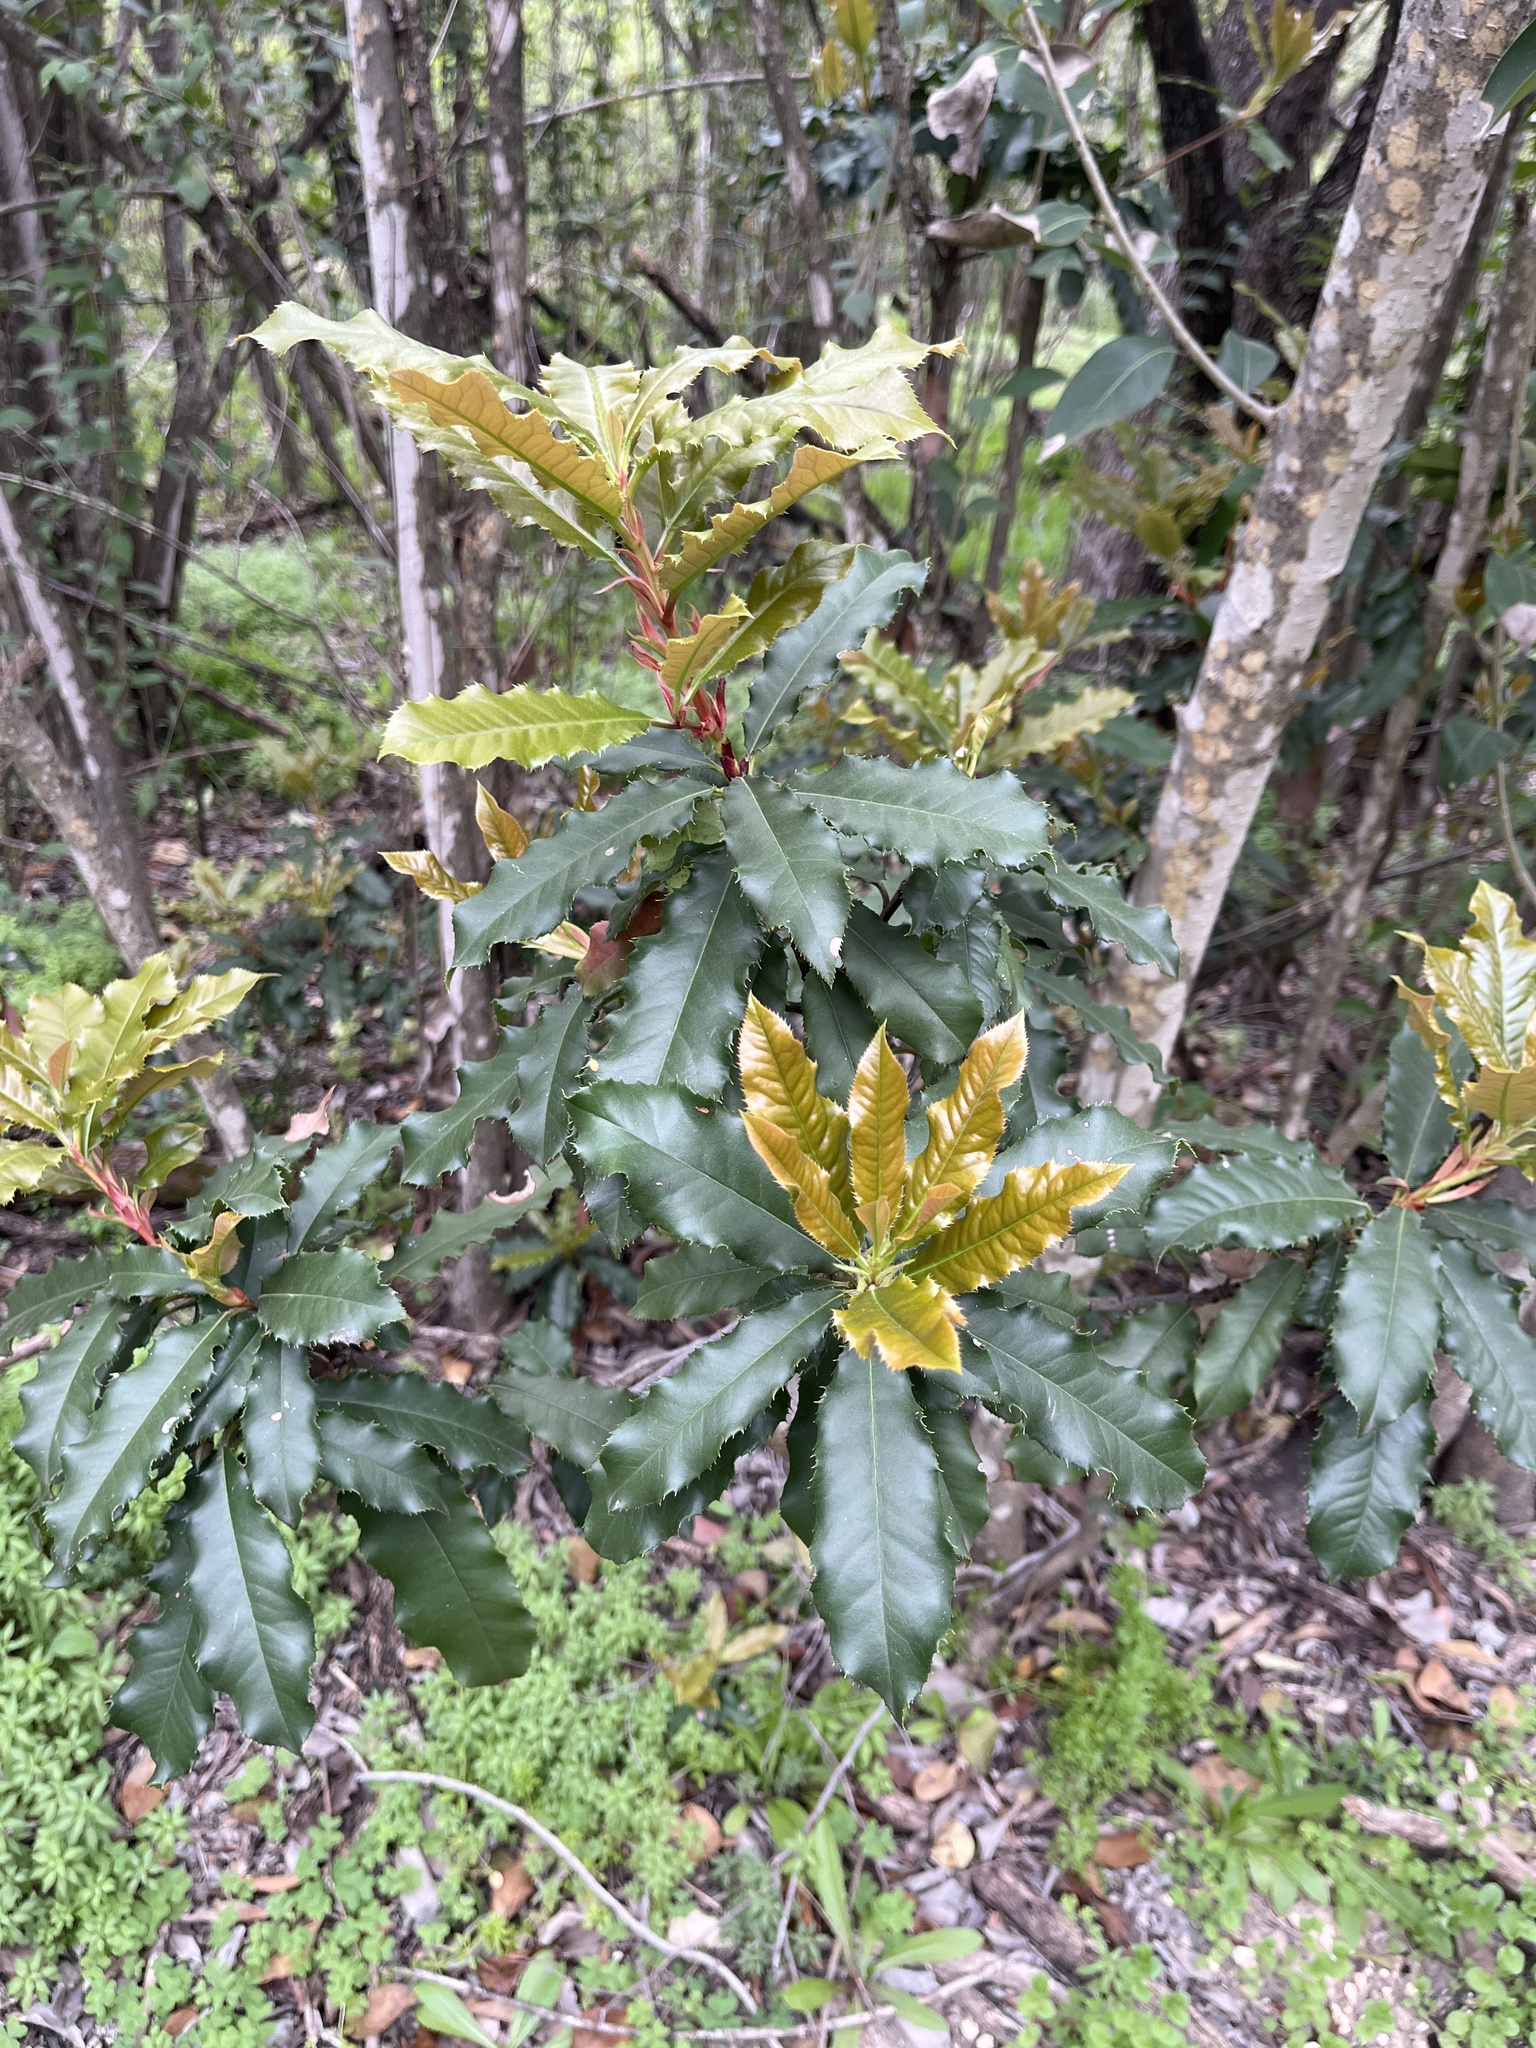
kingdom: Plantae
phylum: Tracheophyta
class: Magnoliopsida
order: Rosales
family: Rosaceae
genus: Photinia
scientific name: Photinia serratifolia
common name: Taiwanese photinia
